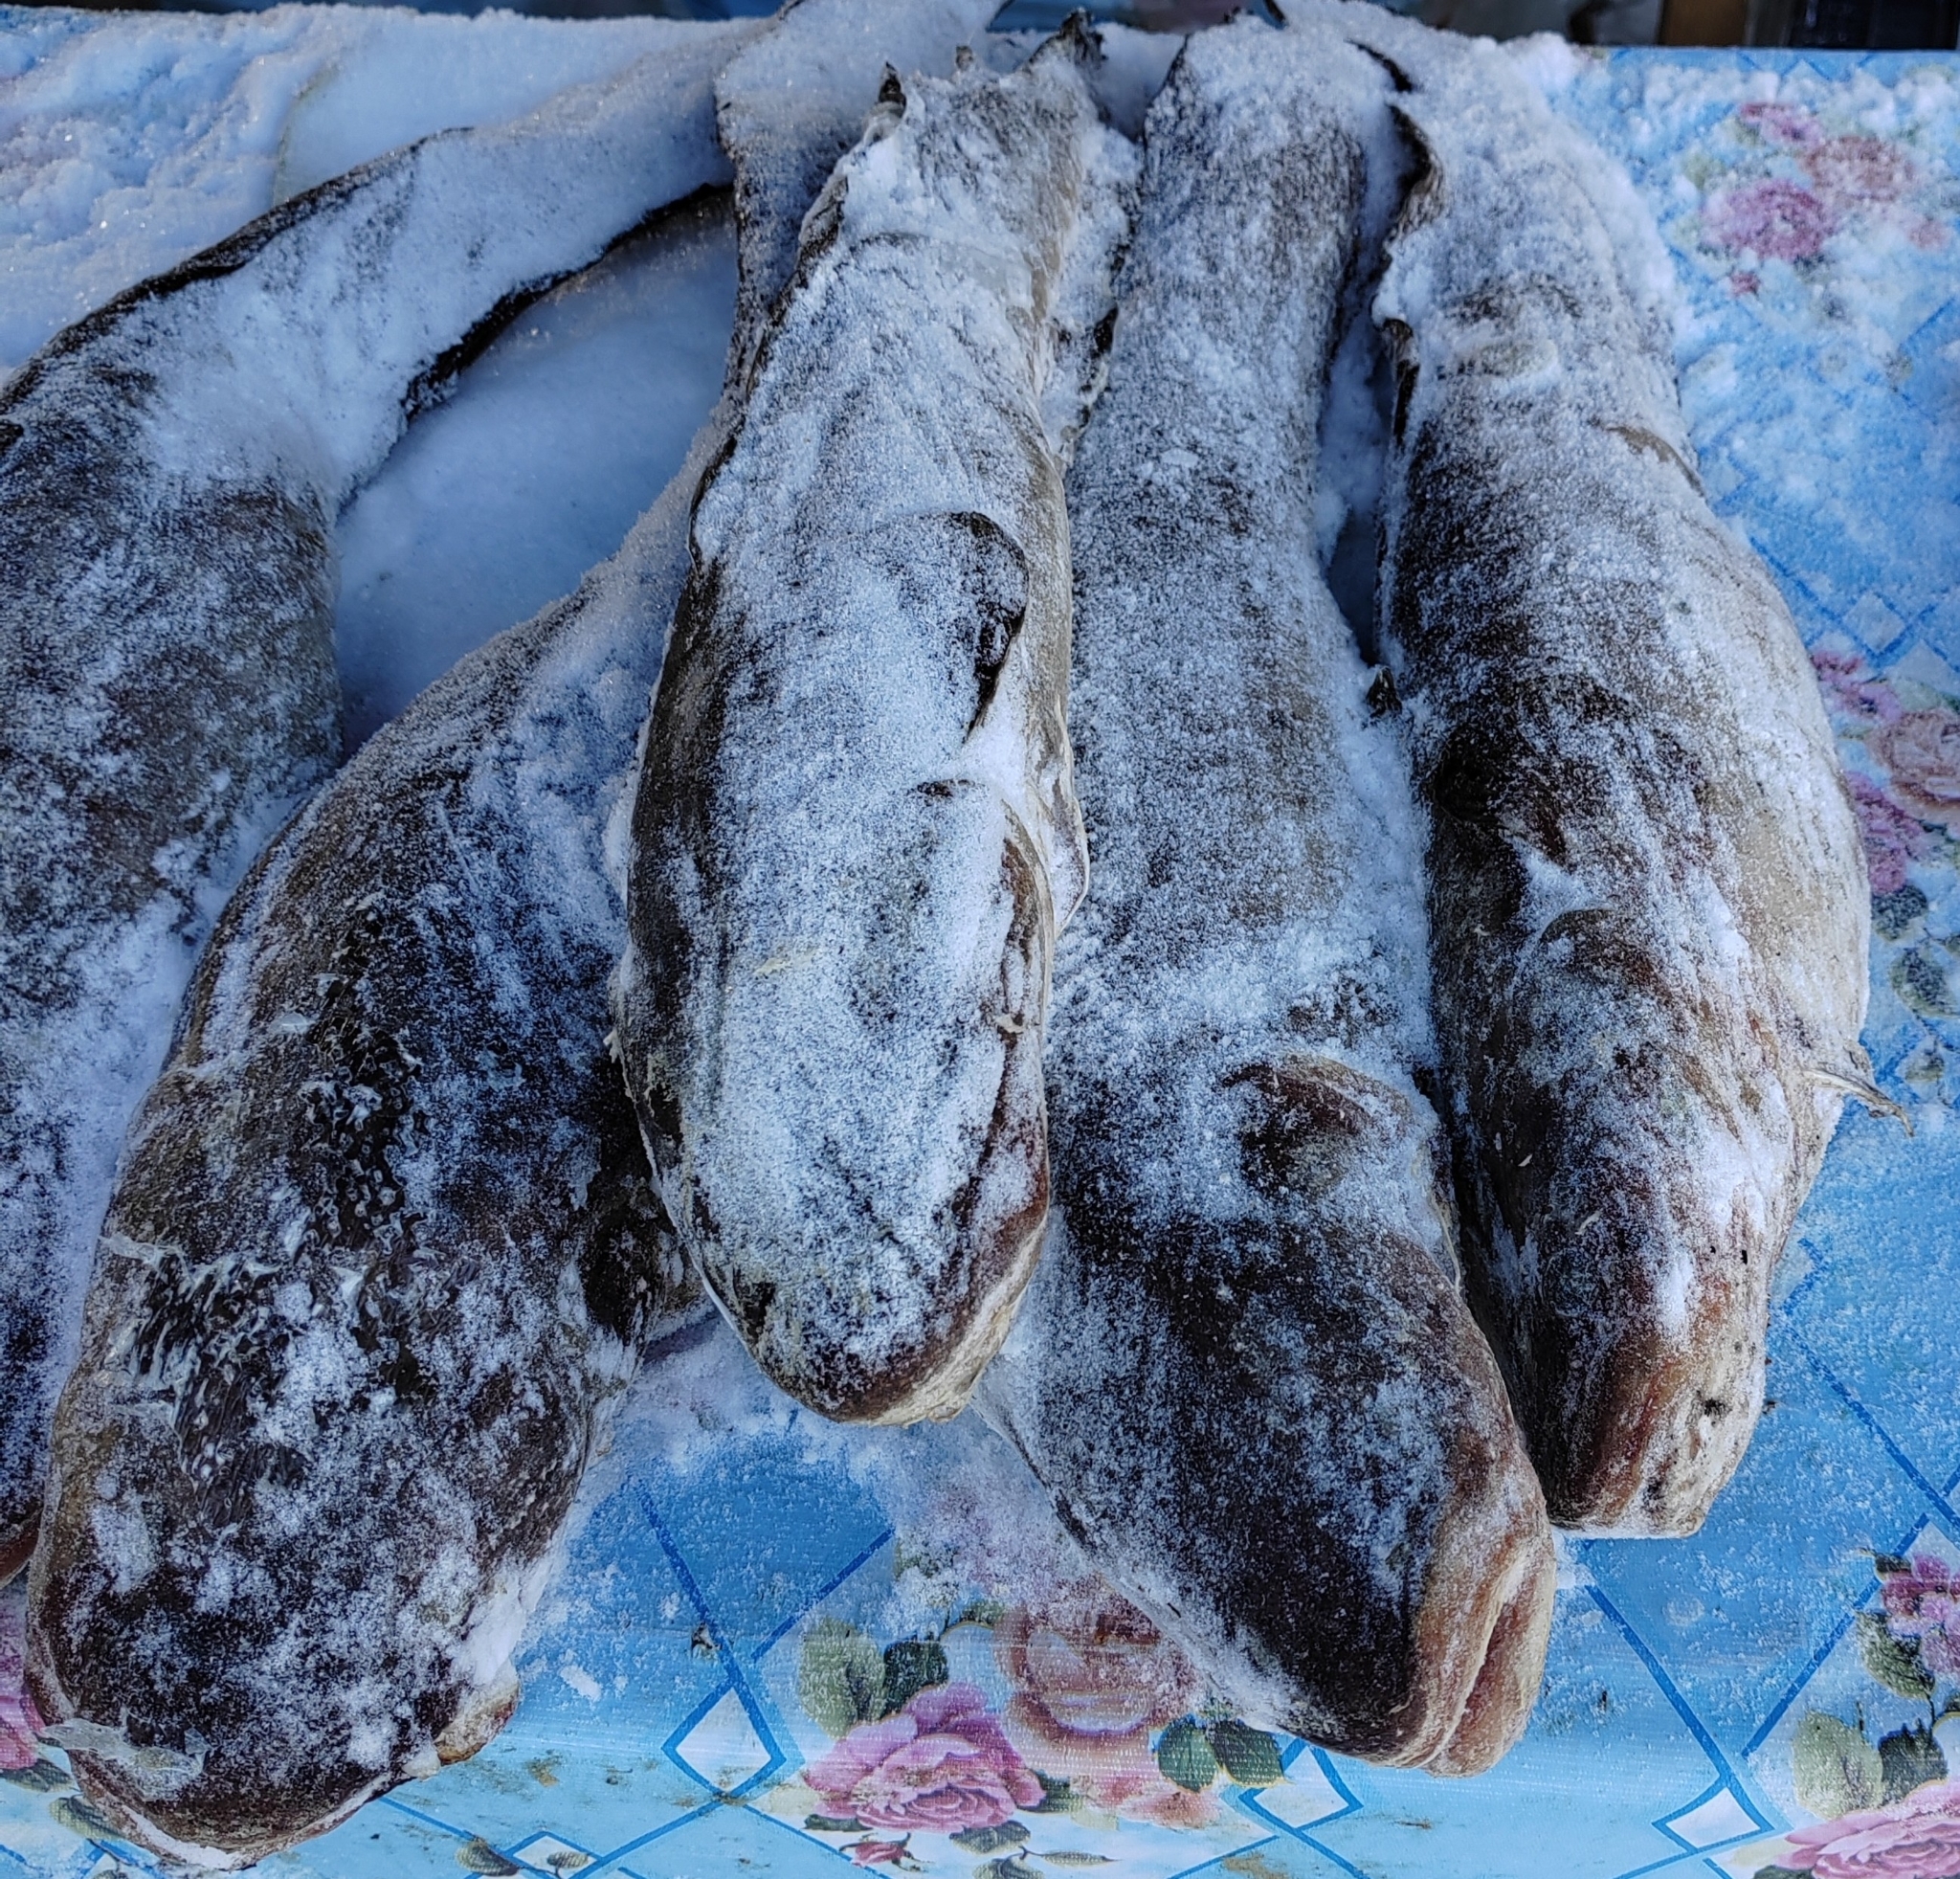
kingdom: Animalia
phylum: Chordata
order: Gadiformes
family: Lotidae
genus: Lota
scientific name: Lota lota
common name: Burbot
